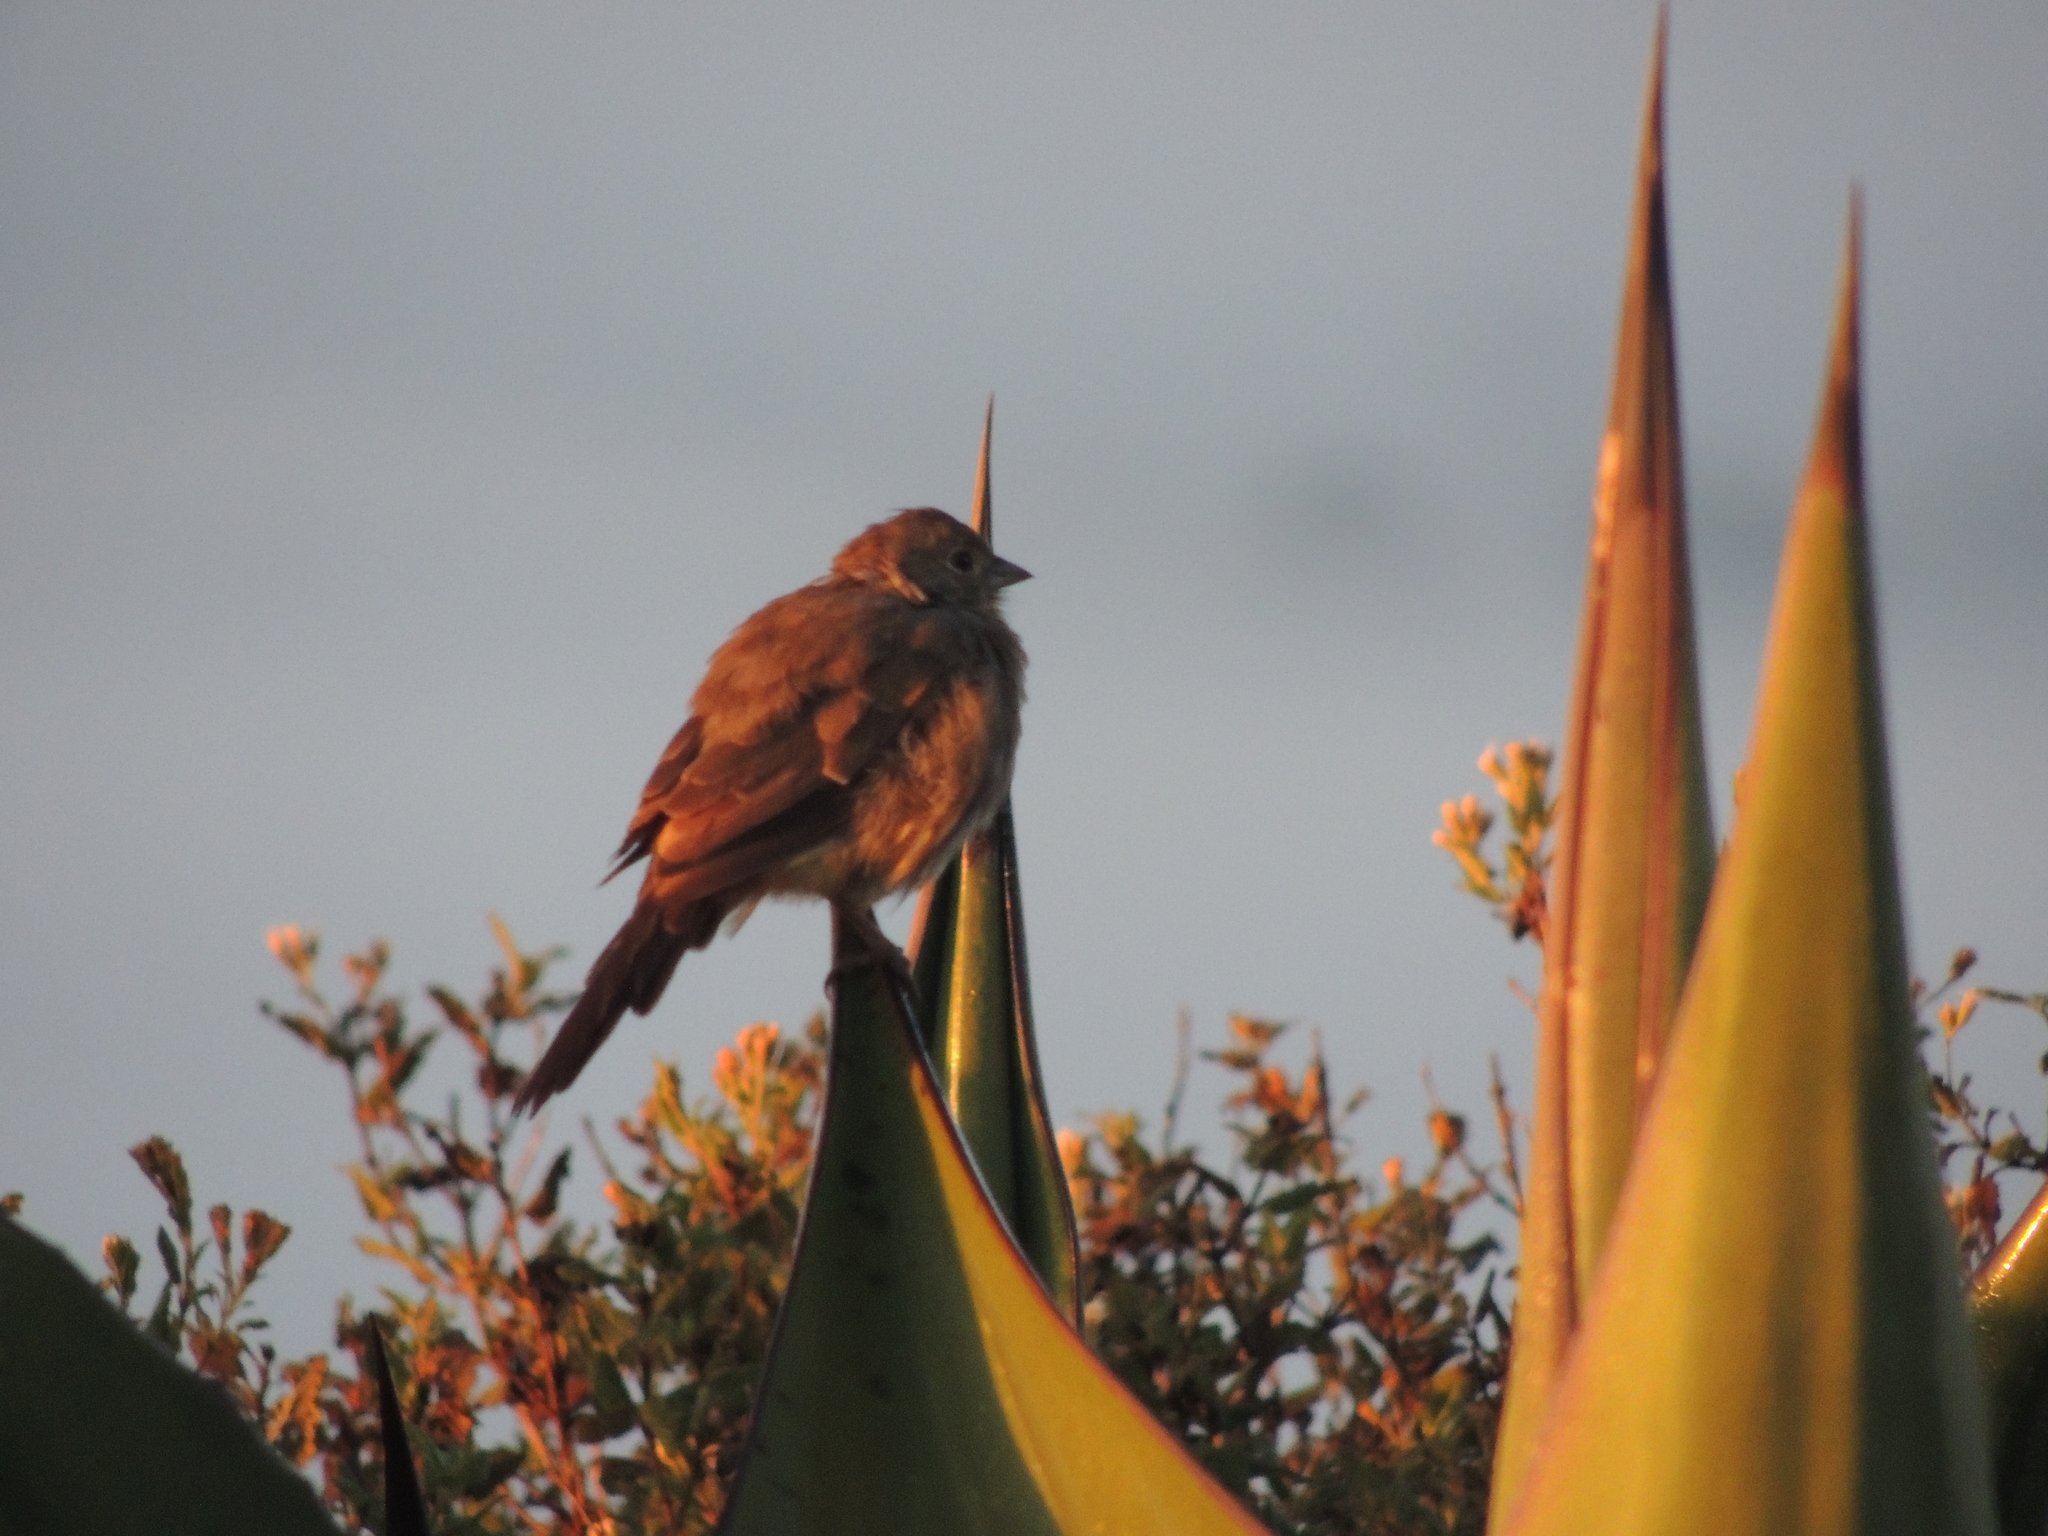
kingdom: Animalia
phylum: Chordata
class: Aves
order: Passeriformes
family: Passerellidae
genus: Melozone
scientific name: Melozone fusca
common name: Canyon towhee
